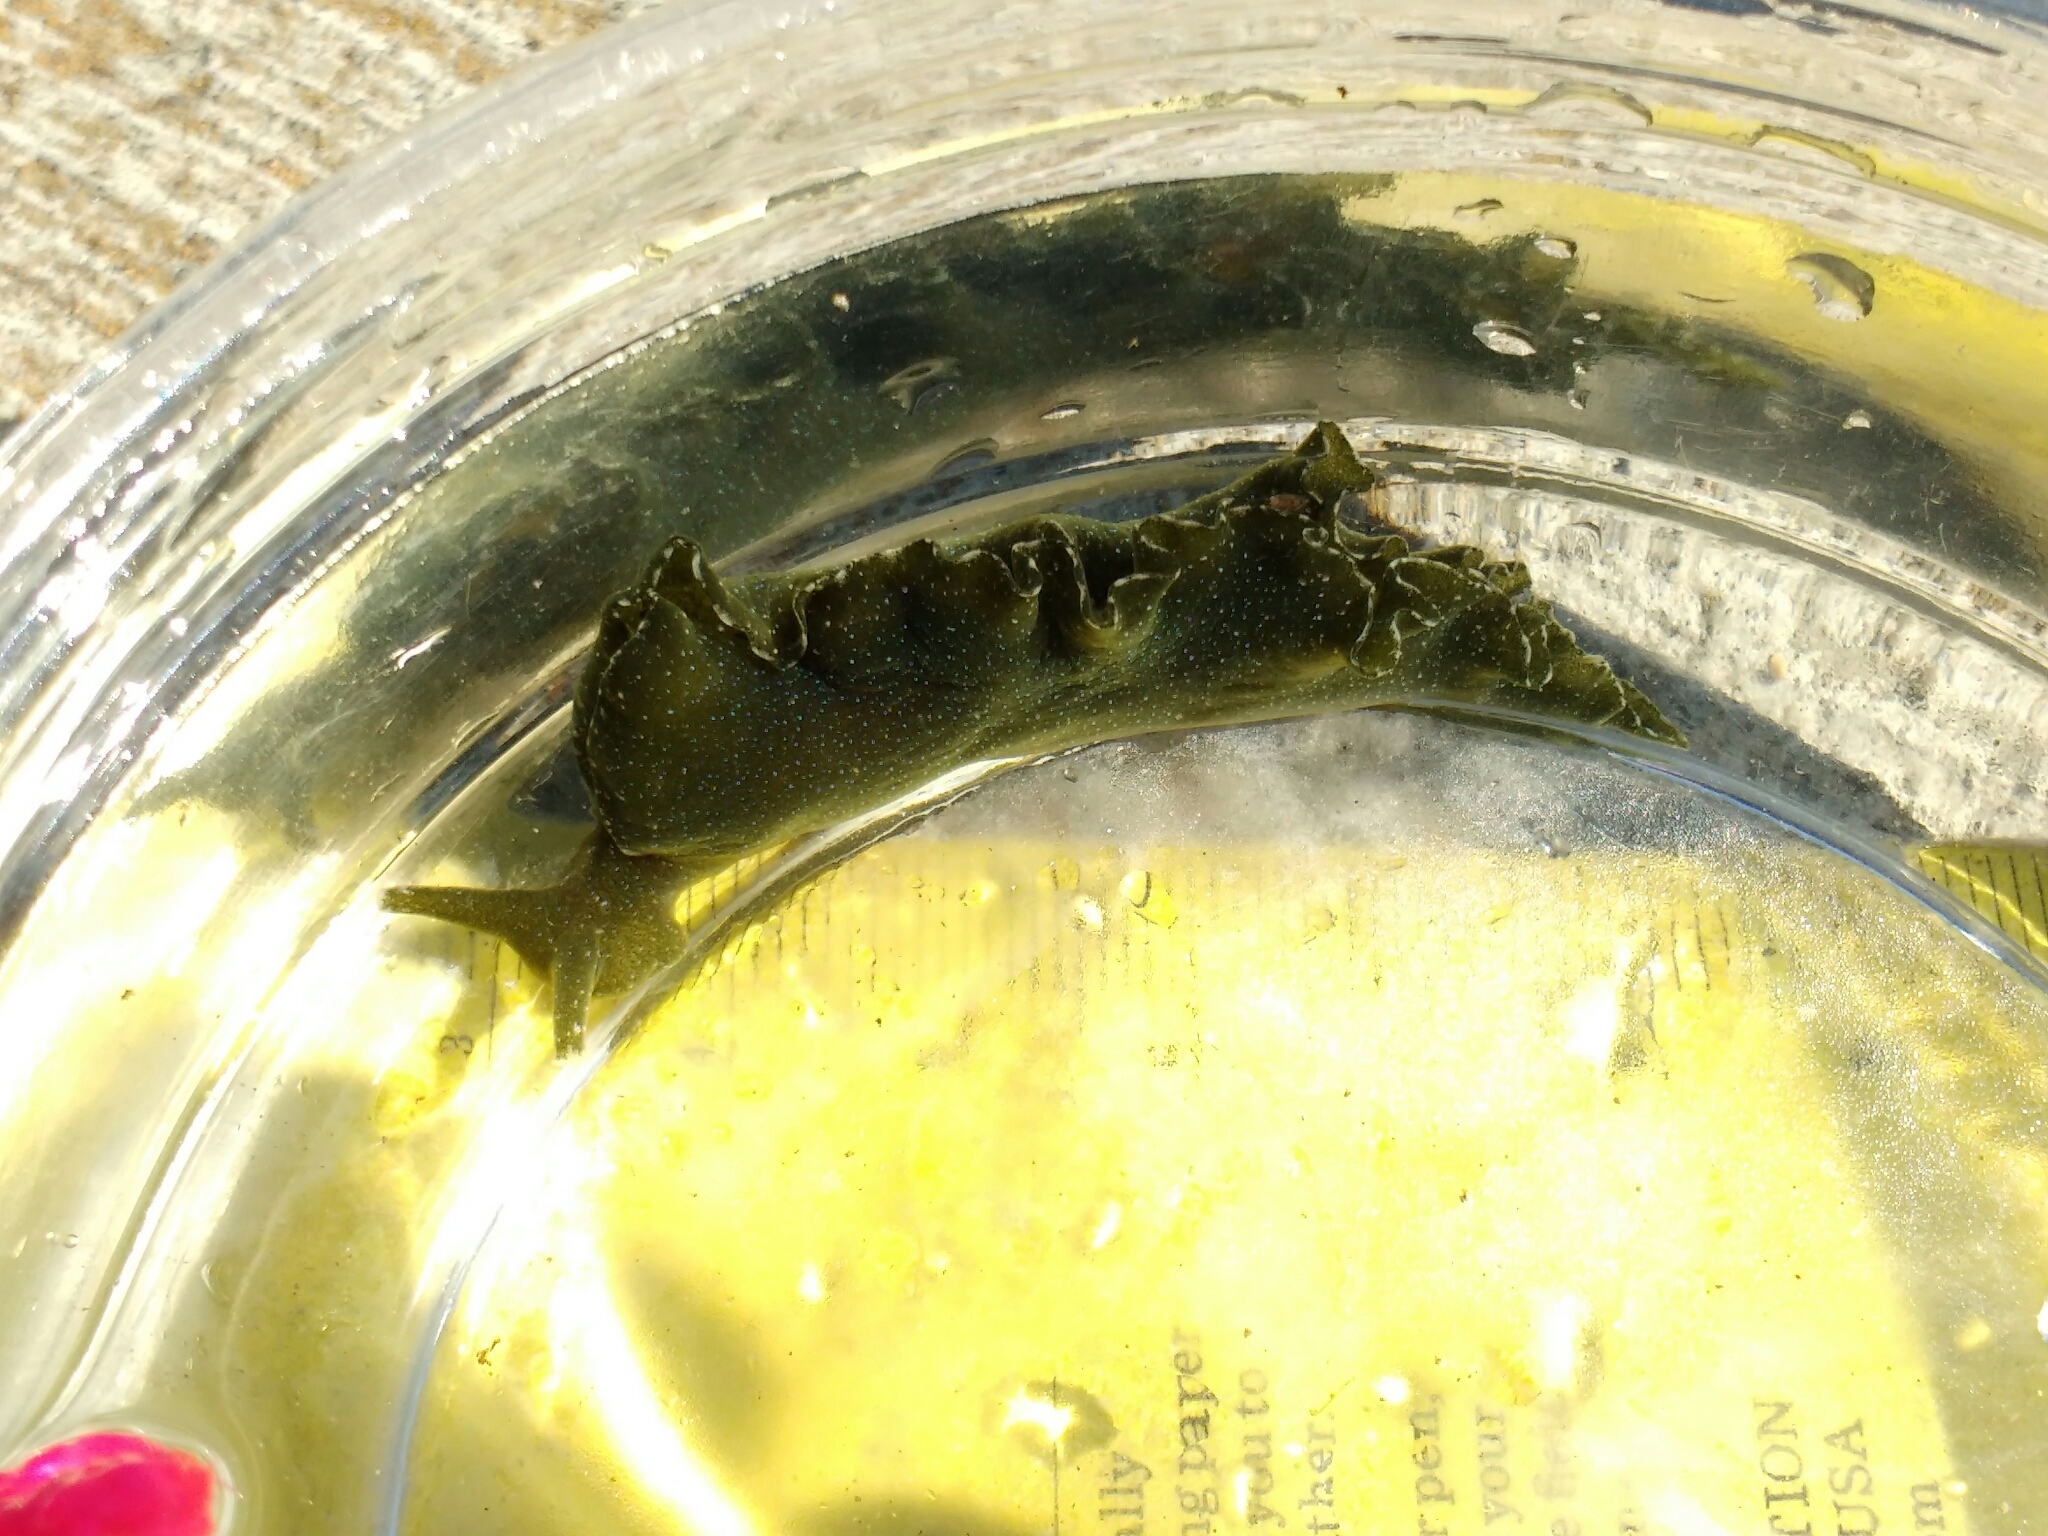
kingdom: Animalia
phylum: Mollusca
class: Gastropoda
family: Plakobranchidae
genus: Elysia
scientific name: Elysia hedgpethi
